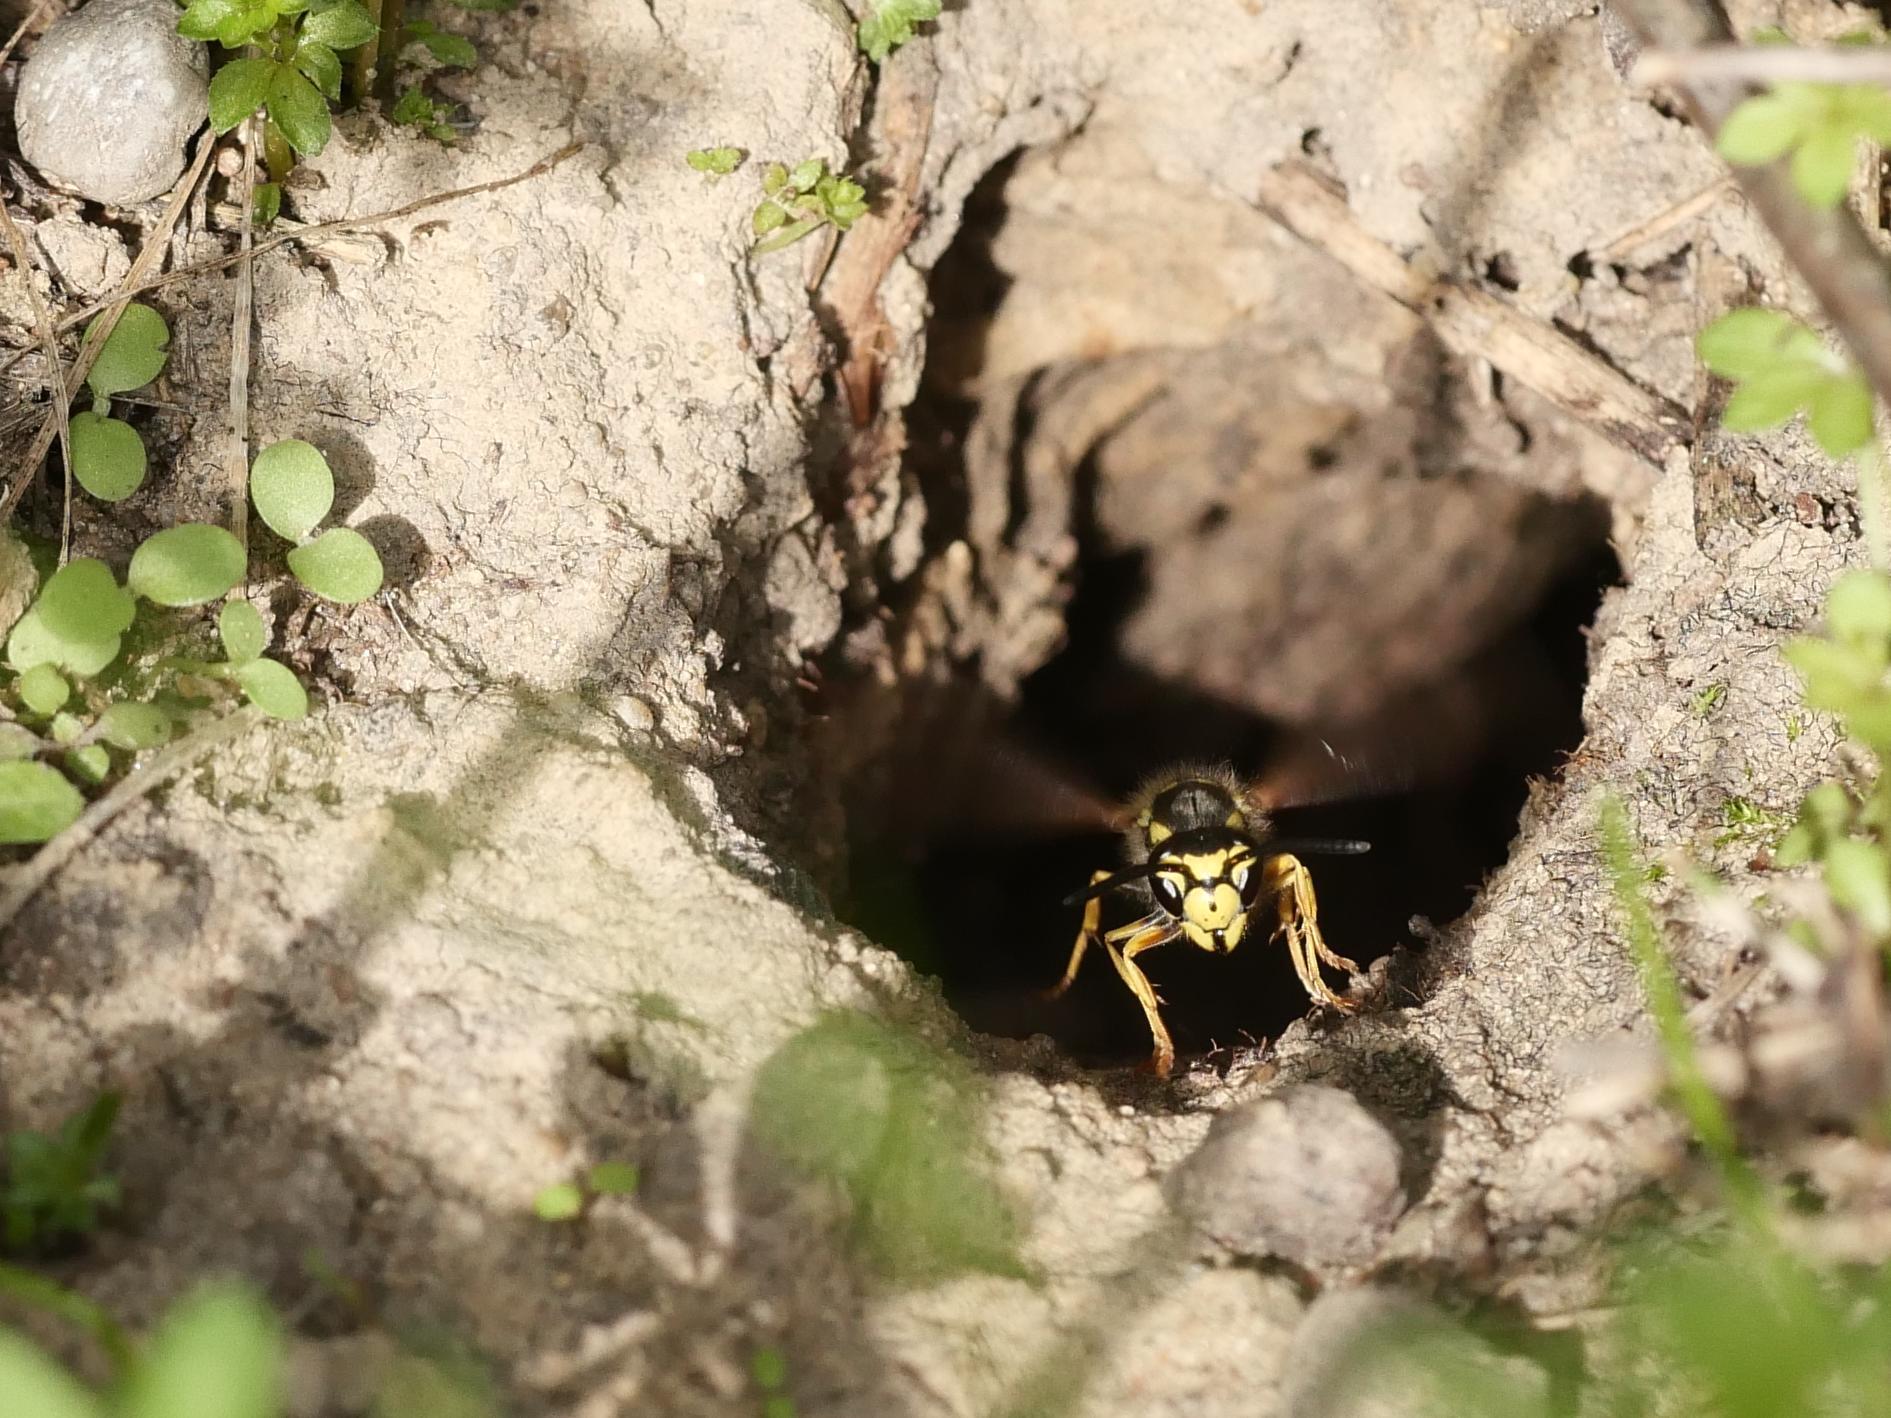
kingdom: Animalia
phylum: Arthropoda
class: Insecta
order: Hymenoptera
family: Vespidae
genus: Vespula
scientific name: Vespula germanica
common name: German wasp
